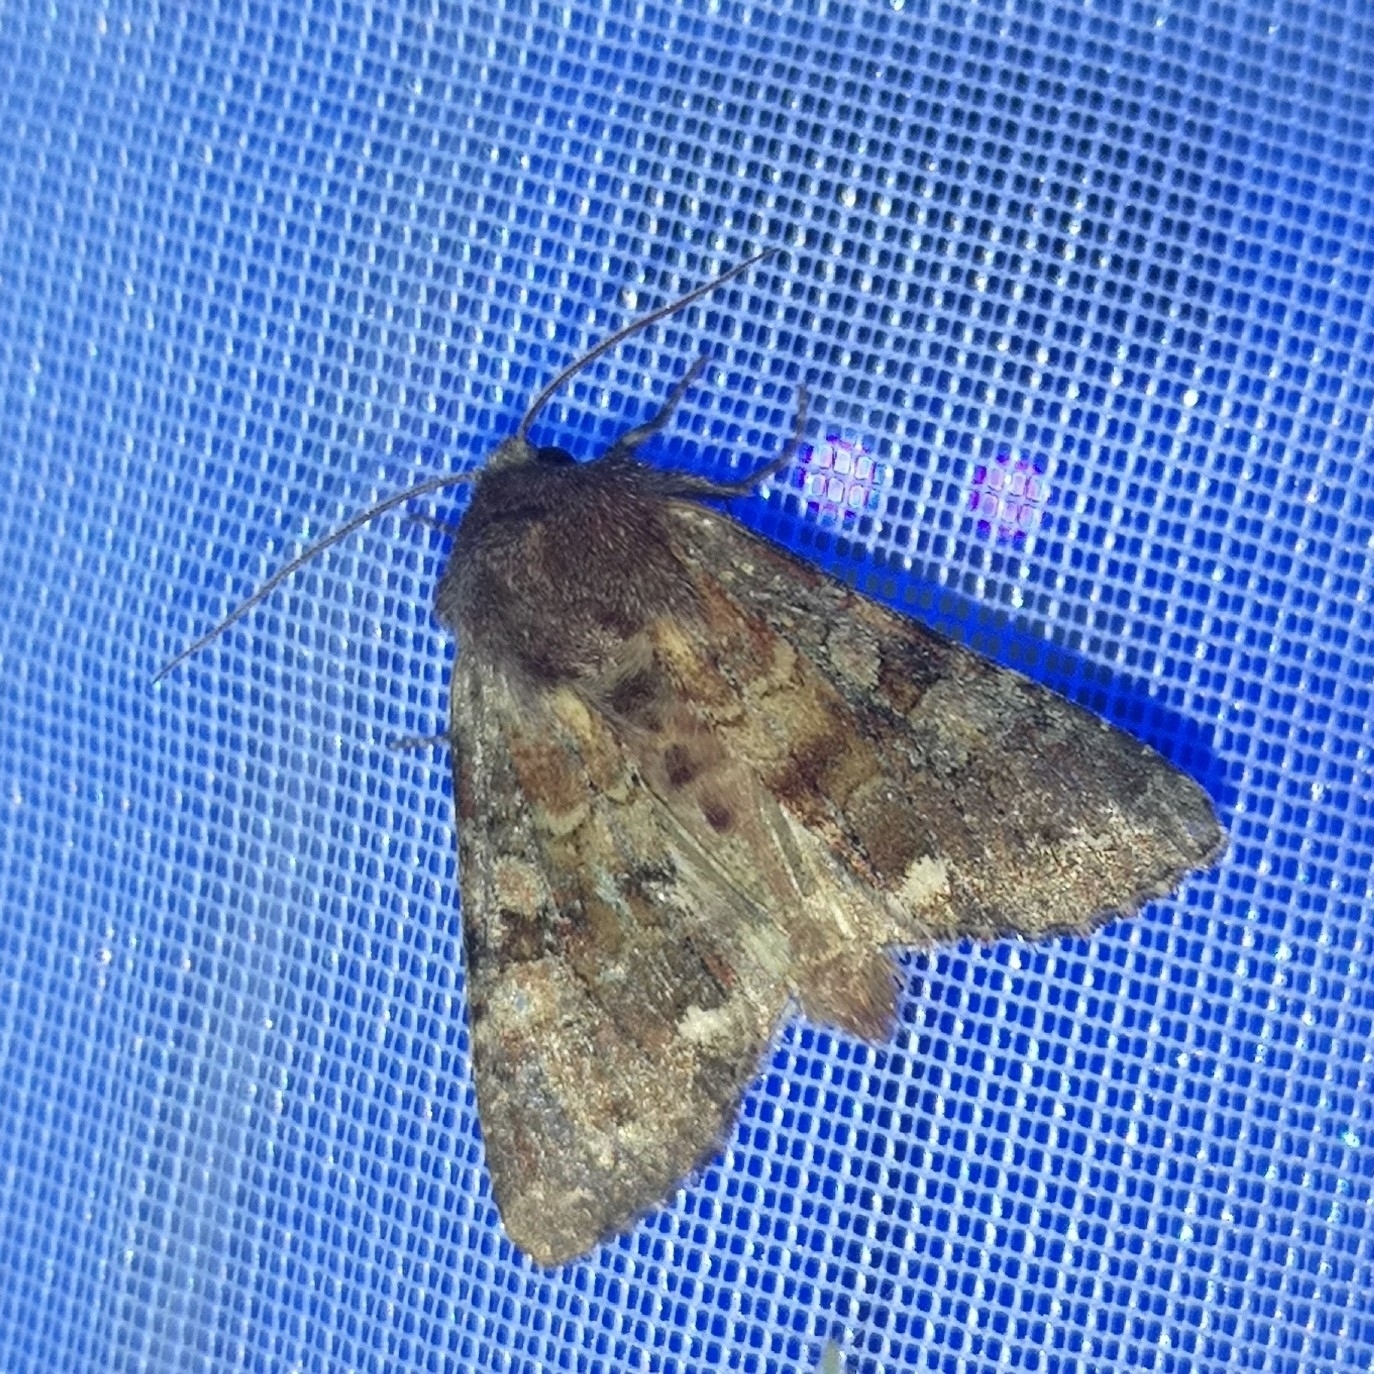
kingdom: Animalia
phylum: Arthropoda
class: Insecta
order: Lepidoptera
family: Noctuidae
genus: Ceramica
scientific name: Ceramica pisi
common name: Broom moth
